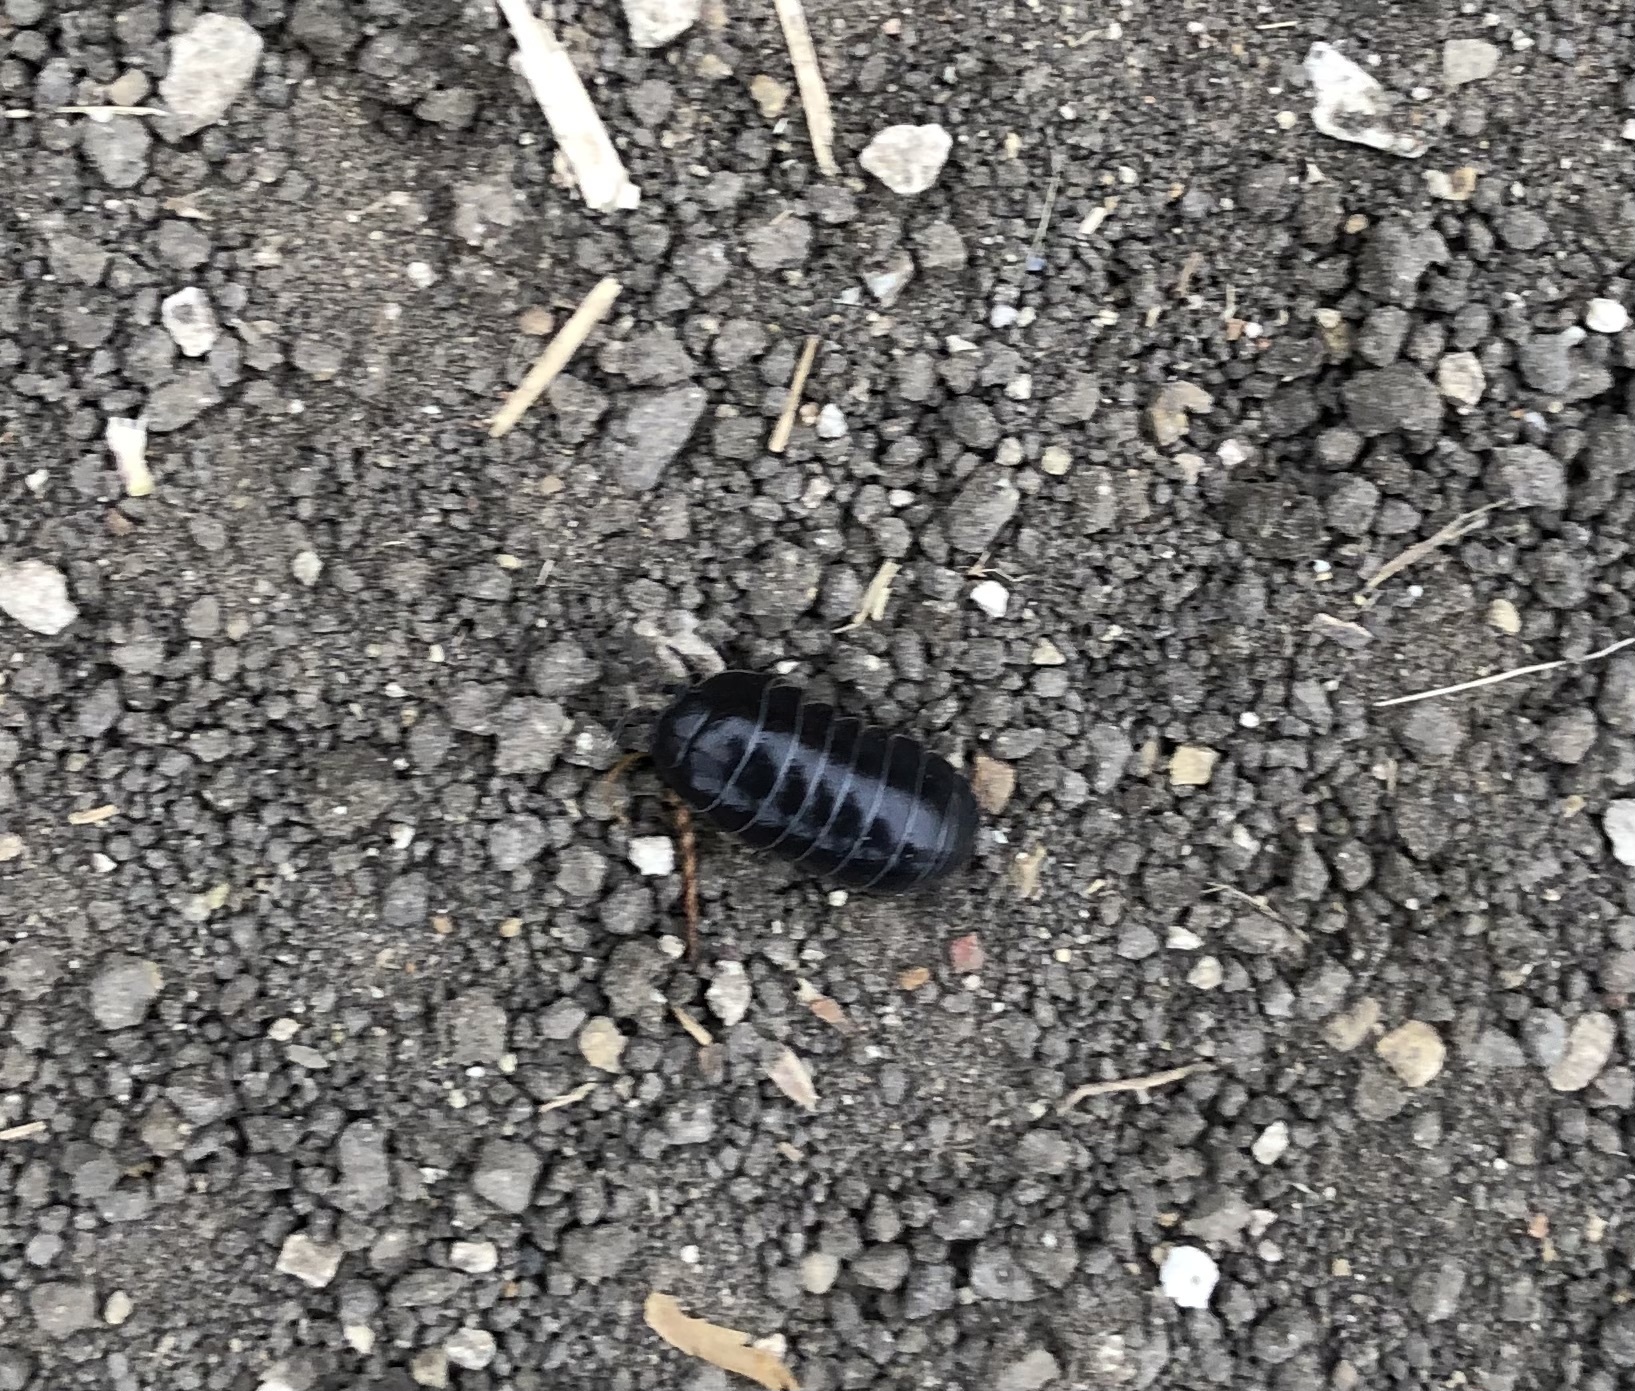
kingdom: Animalia
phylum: Arthropoda
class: Malacostraca
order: Isopoda
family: Armadillidiidae
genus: Armadillidium
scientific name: Armadillidium vulgare
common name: Common pill woodlouse
